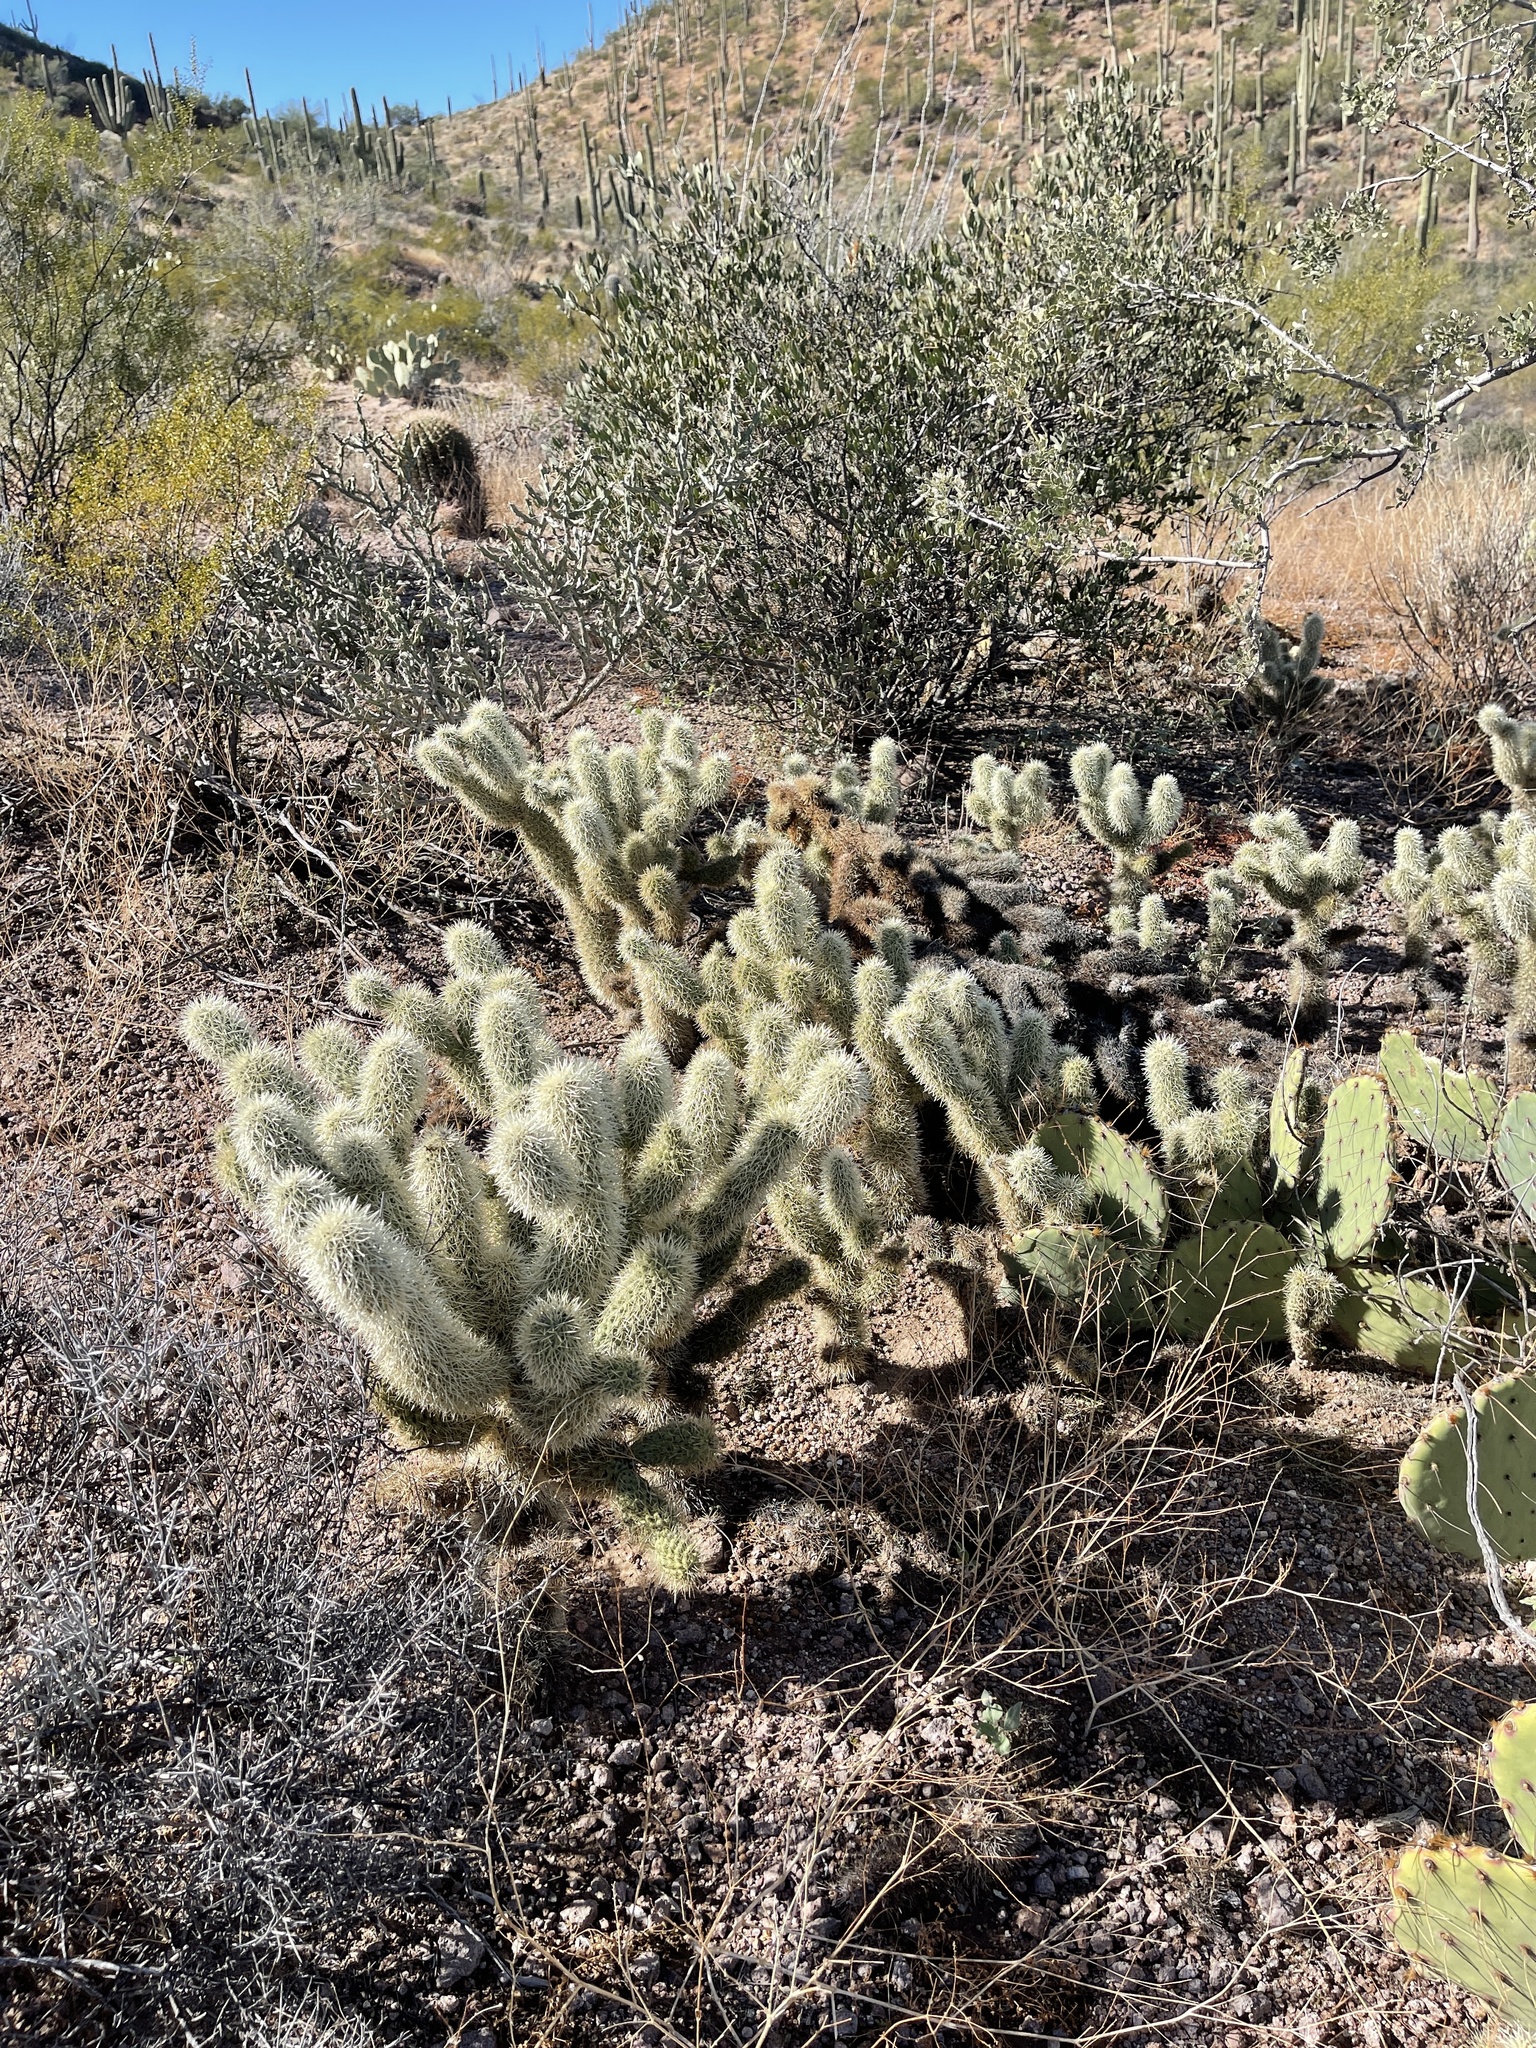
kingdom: Plantae
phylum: Tracheophyta
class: Magnoliopsida
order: Caryophyllales
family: Cactaceae
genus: Cylindropuntia
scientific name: Cylindropuntia fosbergii
